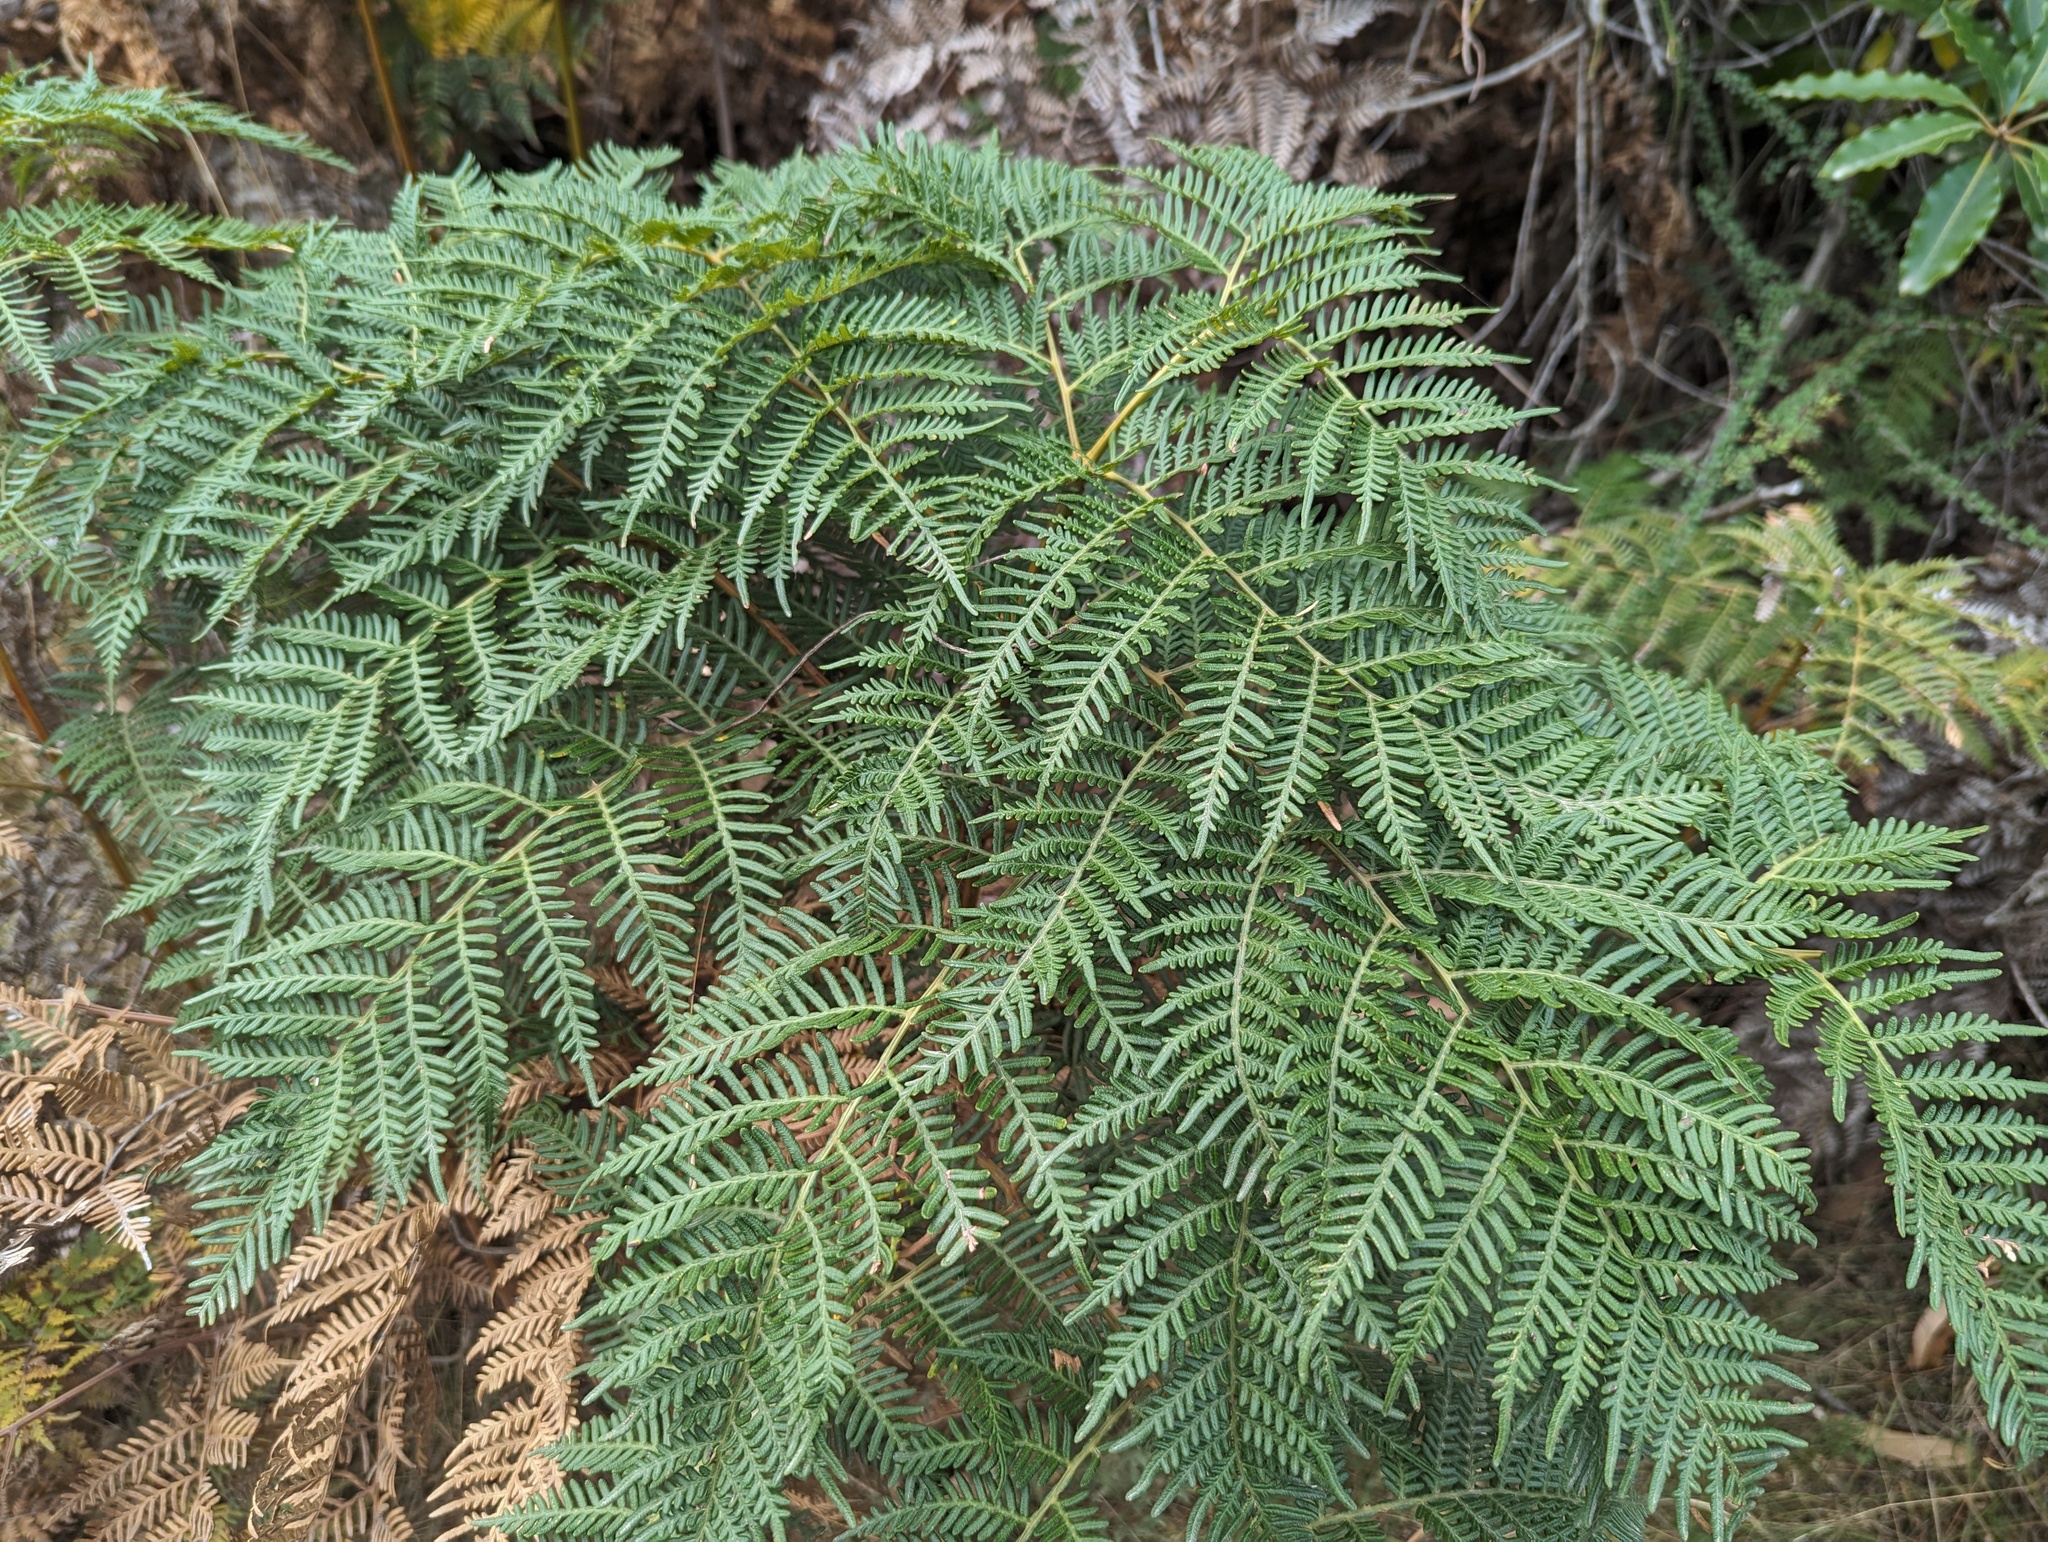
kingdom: Plantae
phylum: Tracheophyta
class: Polypodiopsida
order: Polypodiales
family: Dennstaedtiaceae
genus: Pteridium
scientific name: Pteridium esculentum
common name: Bracken fern
